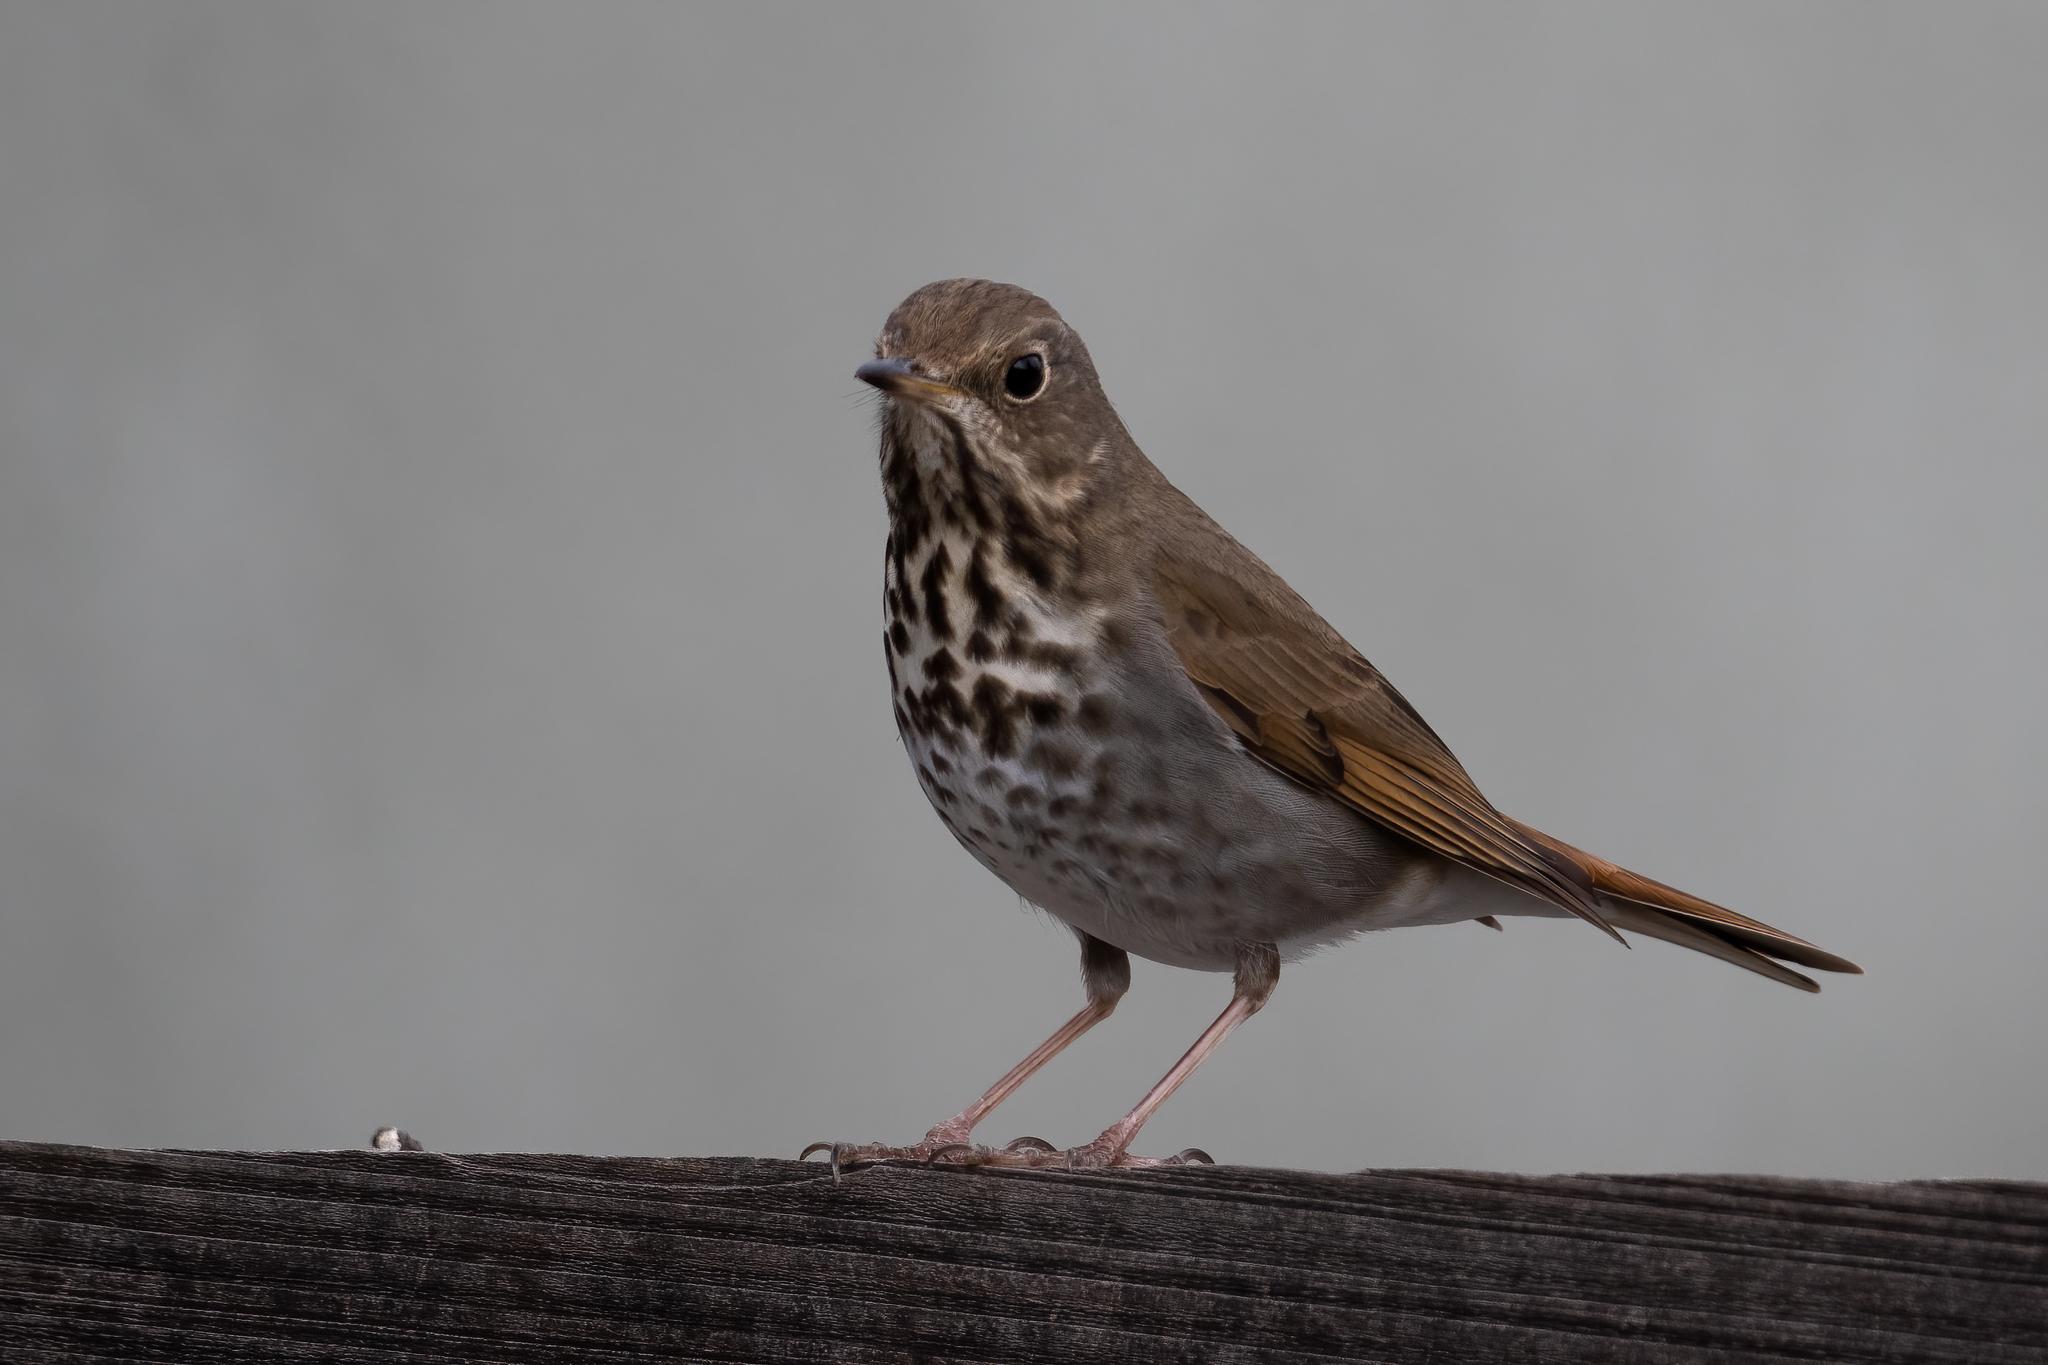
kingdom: Animalia
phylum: Chordata
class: Aves
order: Passeriformes
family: Turdidae
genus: Catharus
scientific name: Catharus guttatus
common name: Hermit thrush
